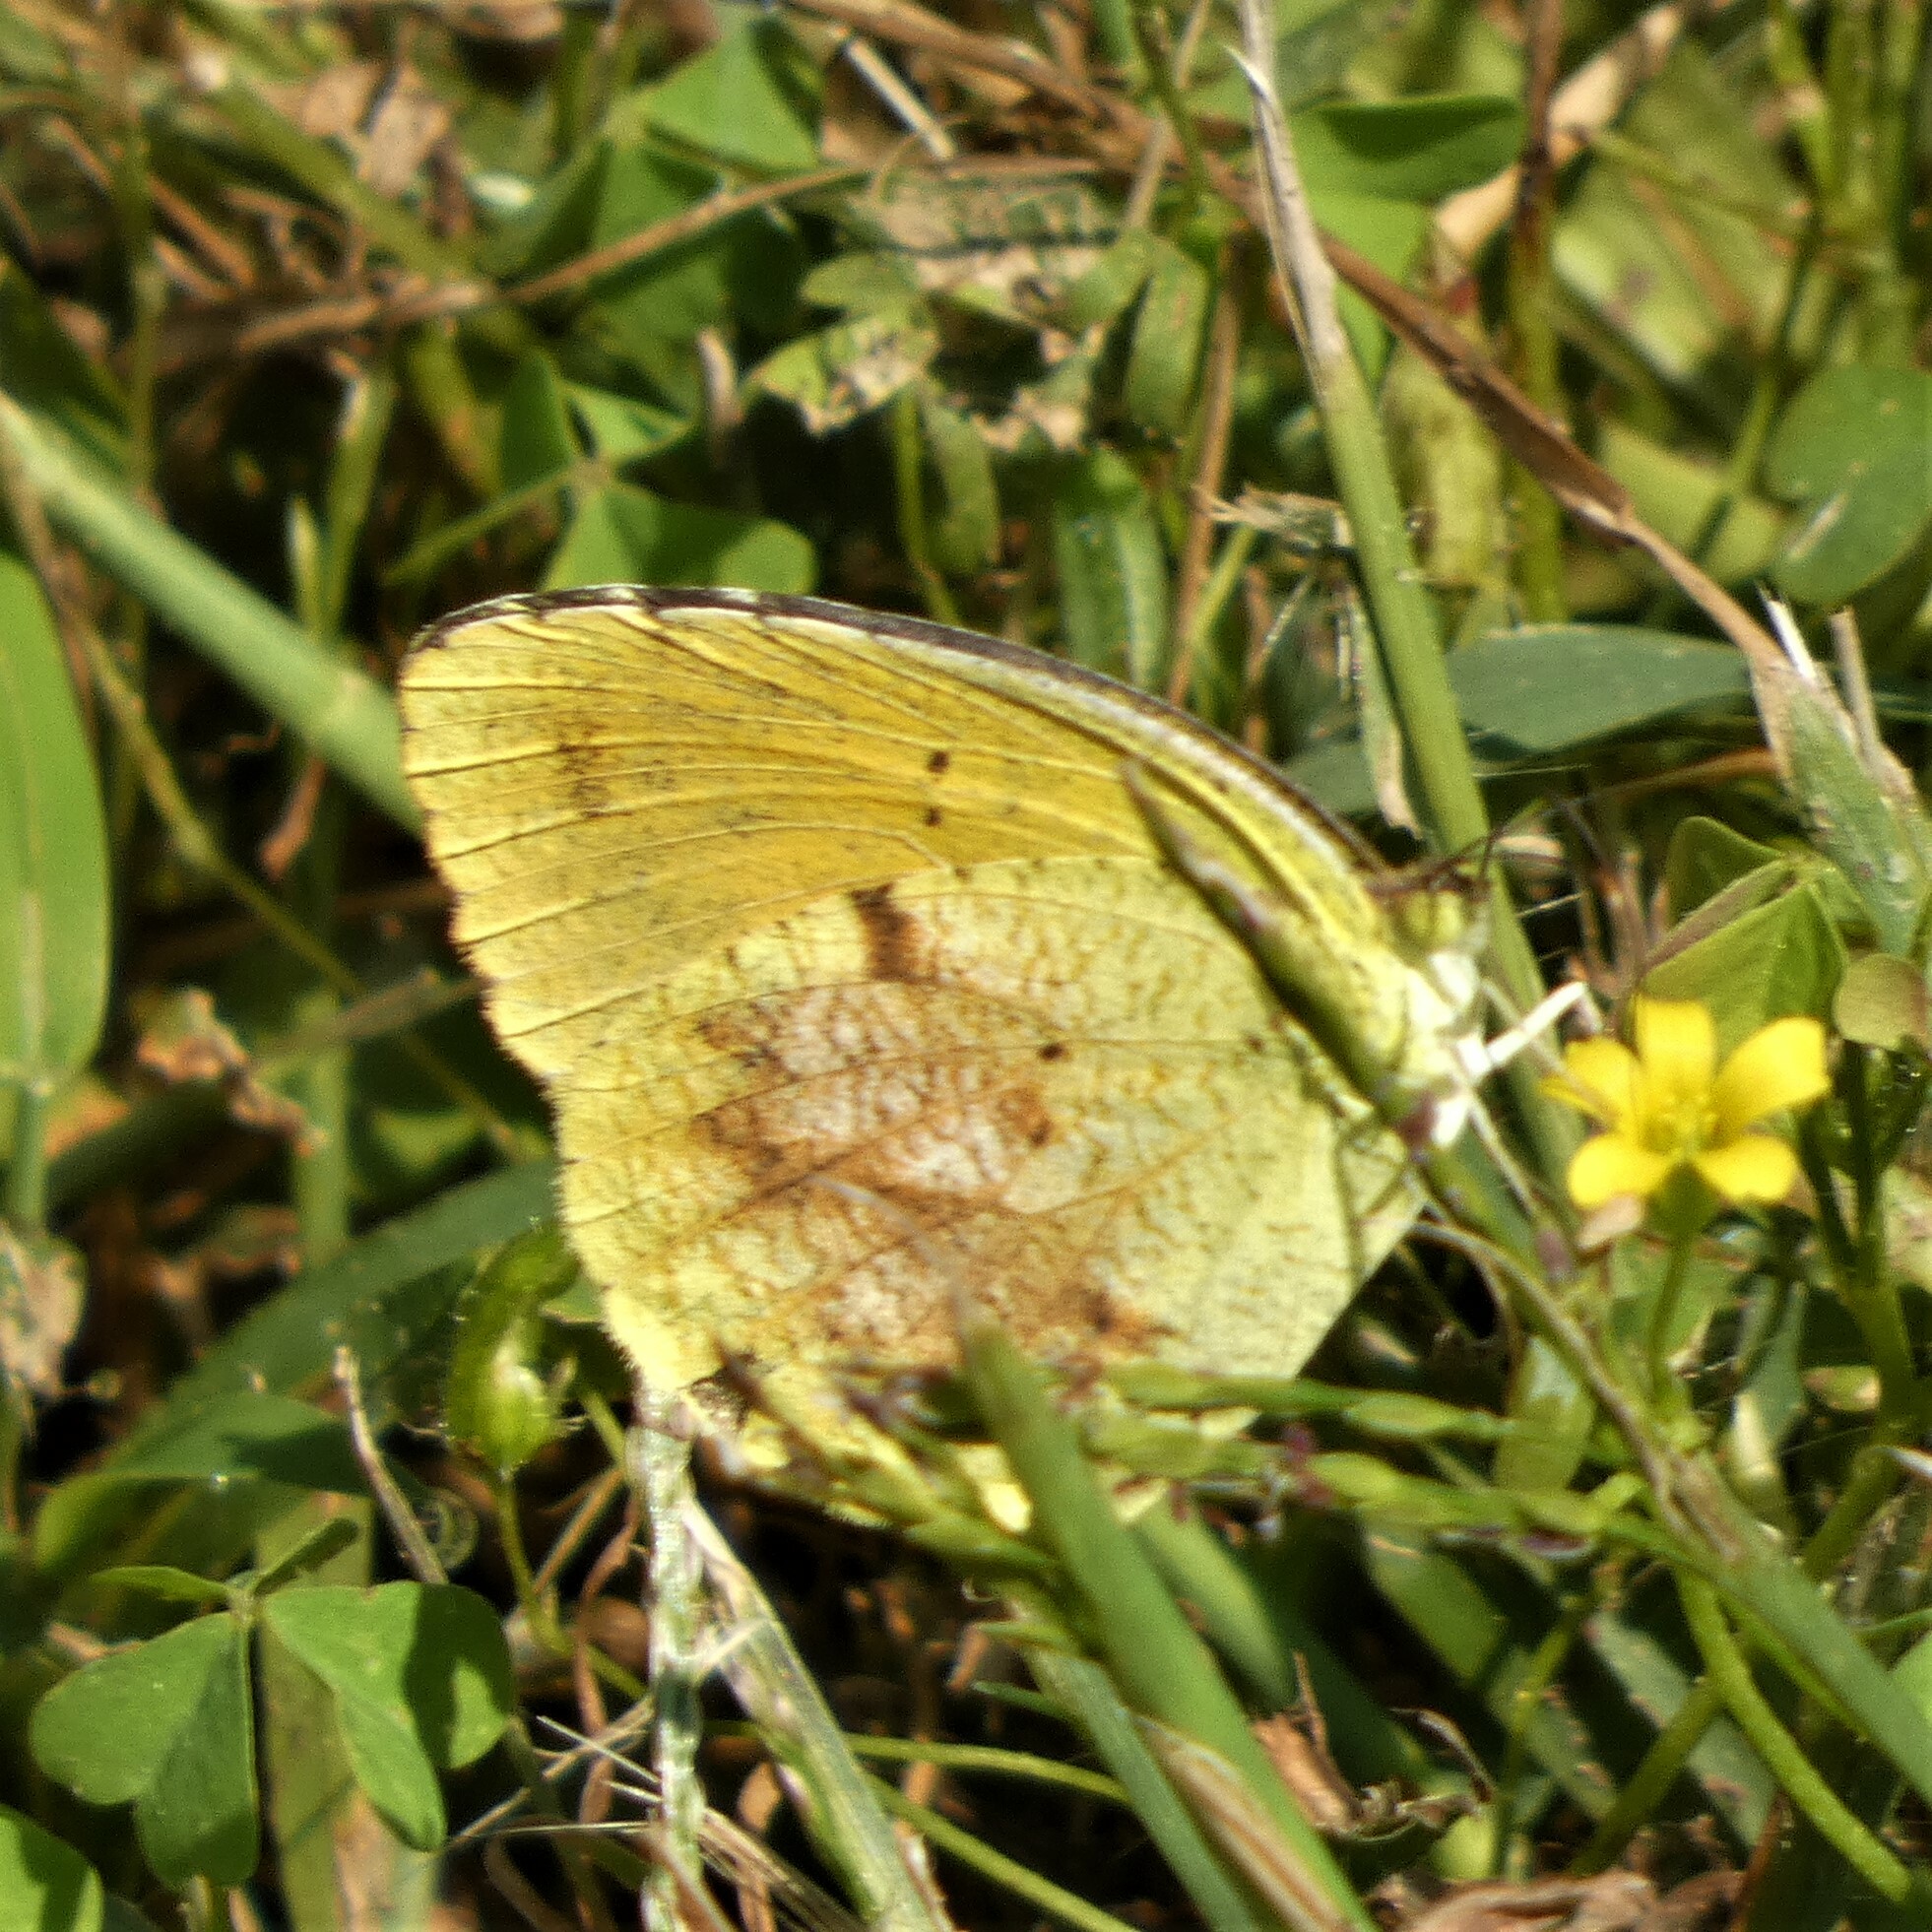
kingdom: Animalia
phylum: Arthropoda
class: Insecta
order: Lepidoptera
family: Pieridae
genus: Abaeis
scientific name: Abaeis nicippe
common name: Sleepy orange
